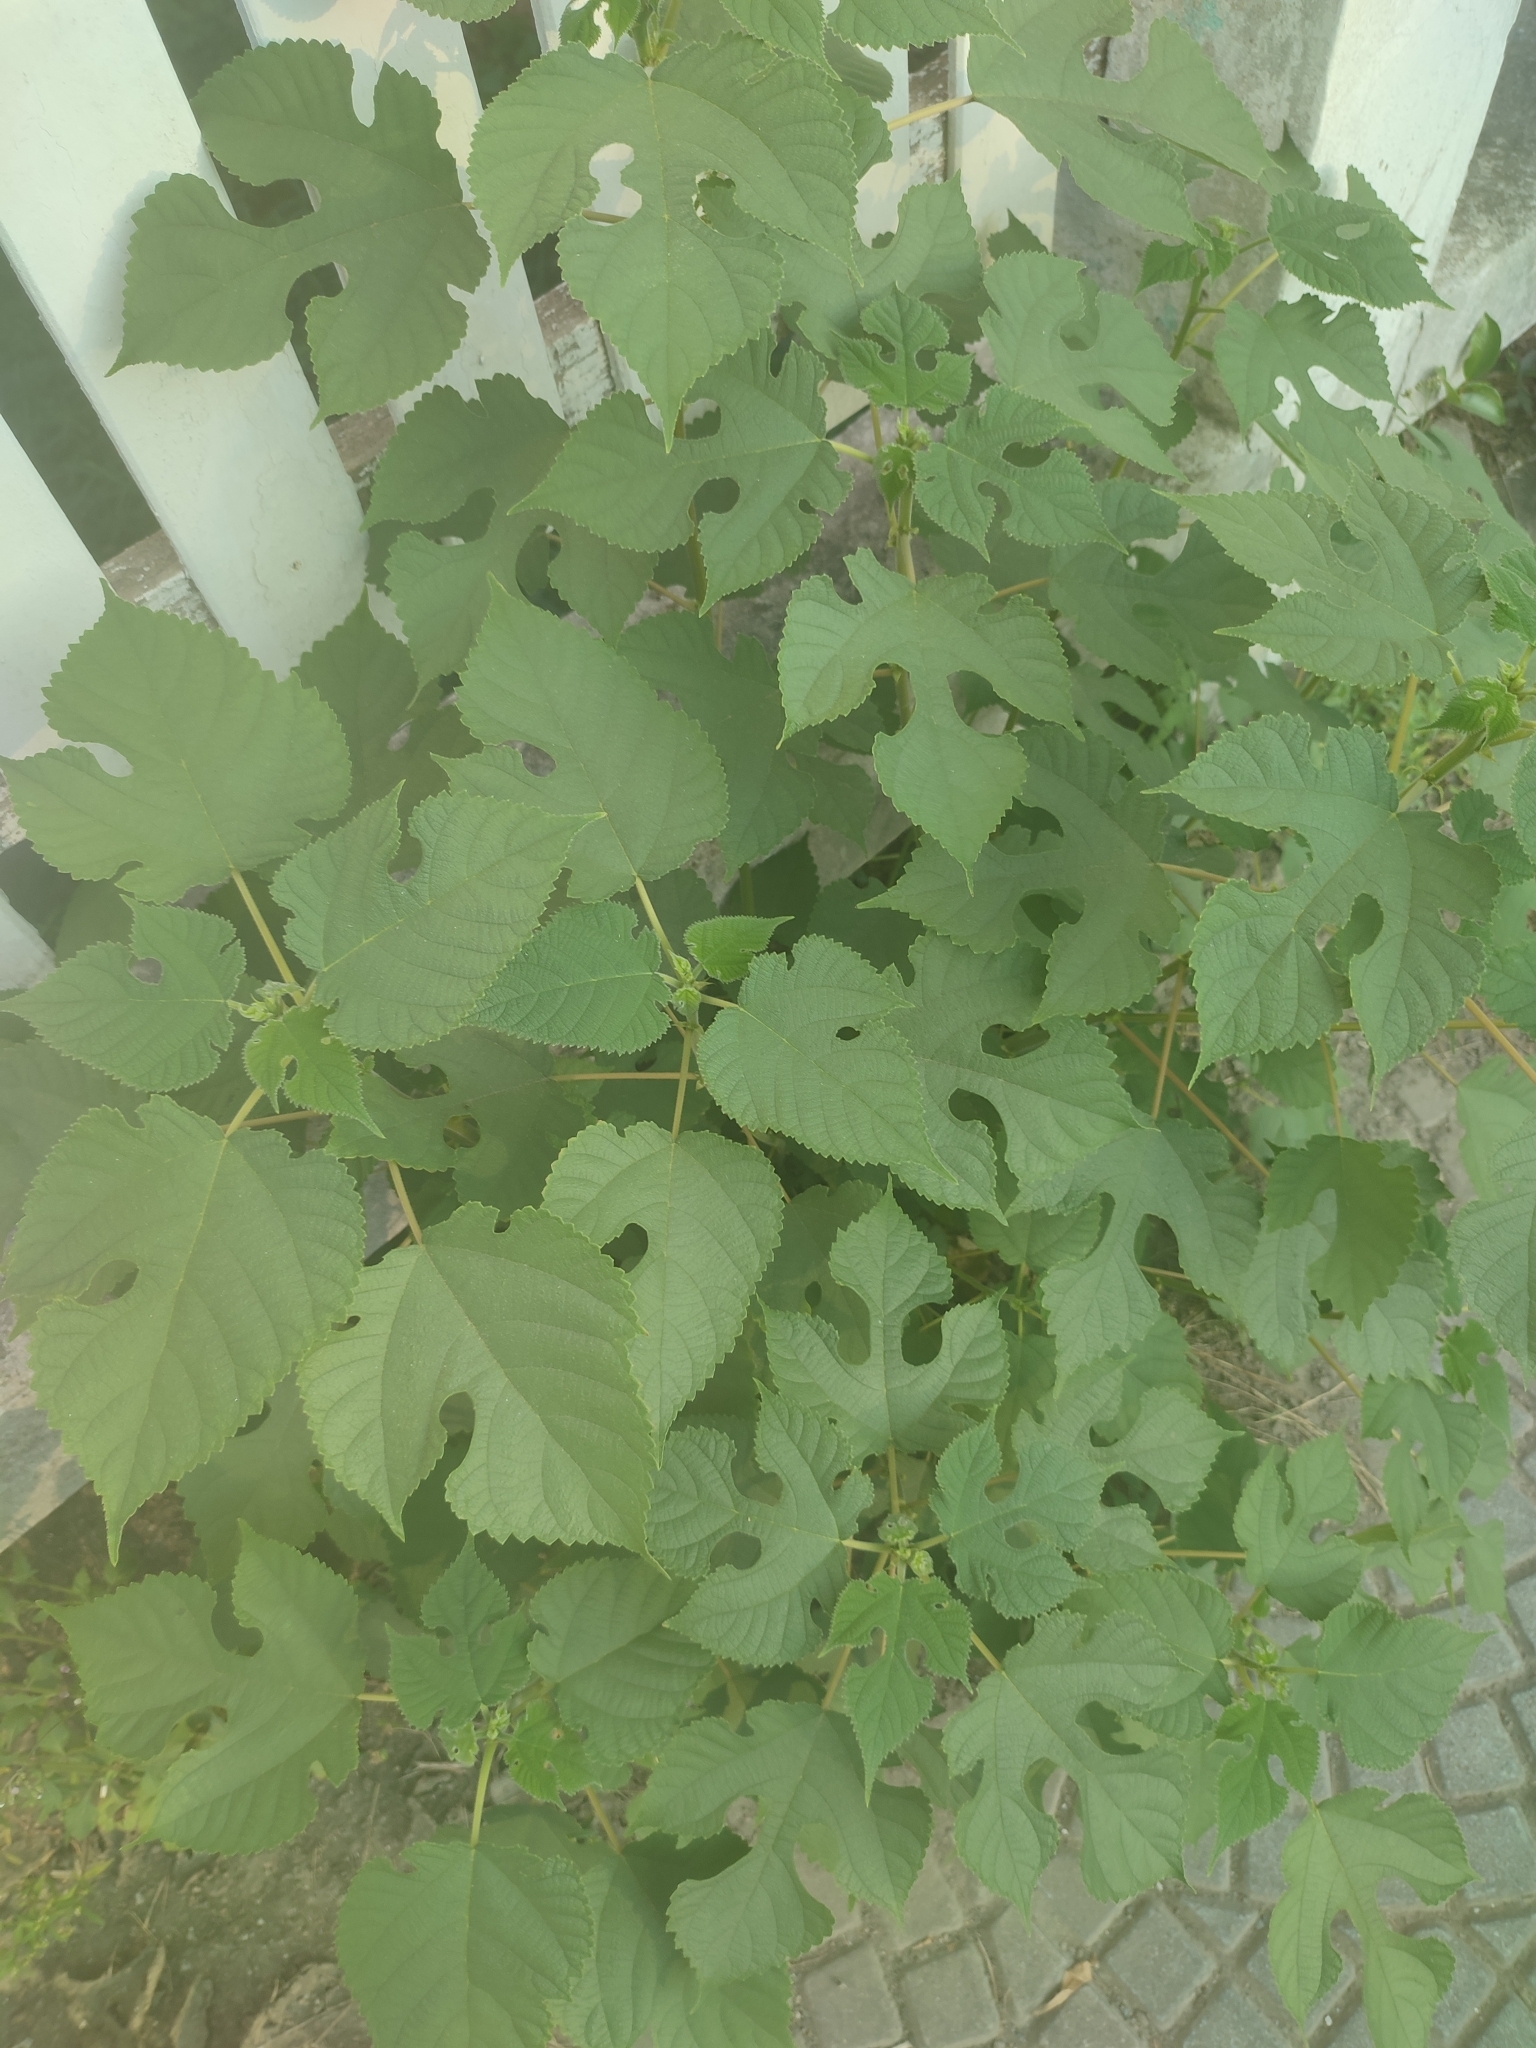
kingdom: Plantae
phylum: Tracheophyta
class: Magnoliopsida
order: Rosales
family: Moraceae
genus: Broussonetia
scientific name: Broussonetia papyrifera
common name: Paper mulberry
